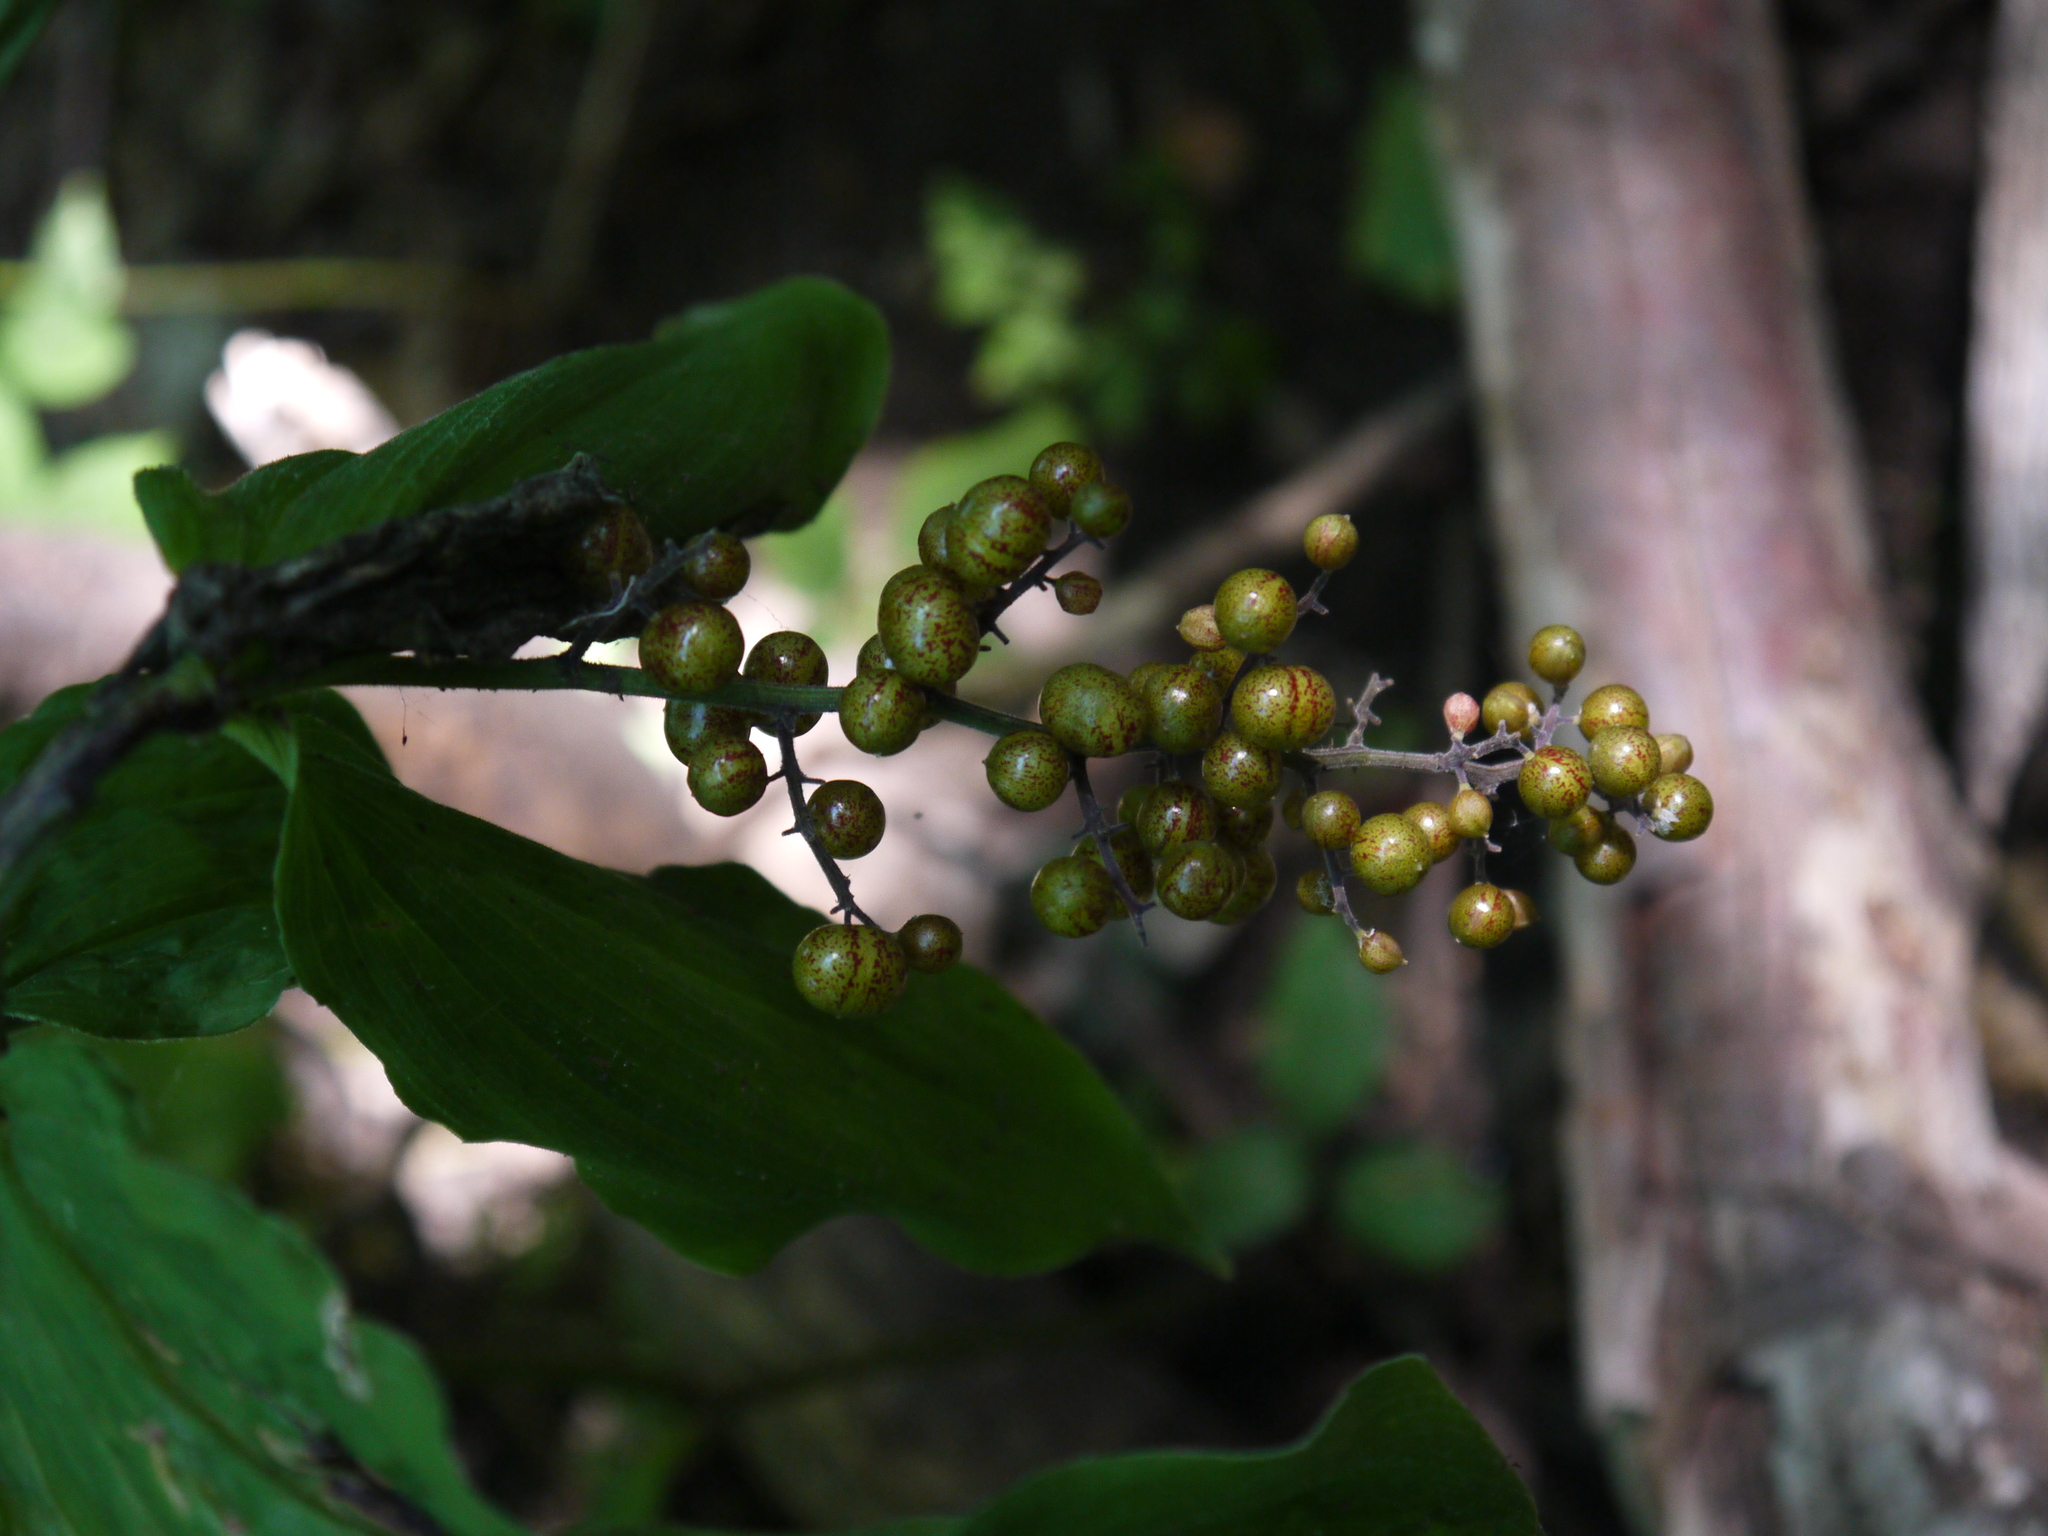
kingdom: Plantae
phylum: Tracheophyta
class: Liliopsida
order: Asparagales
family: Asparagaceae
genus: Maianthemum
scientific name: Maianthemum racemosum
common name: False spikenard
